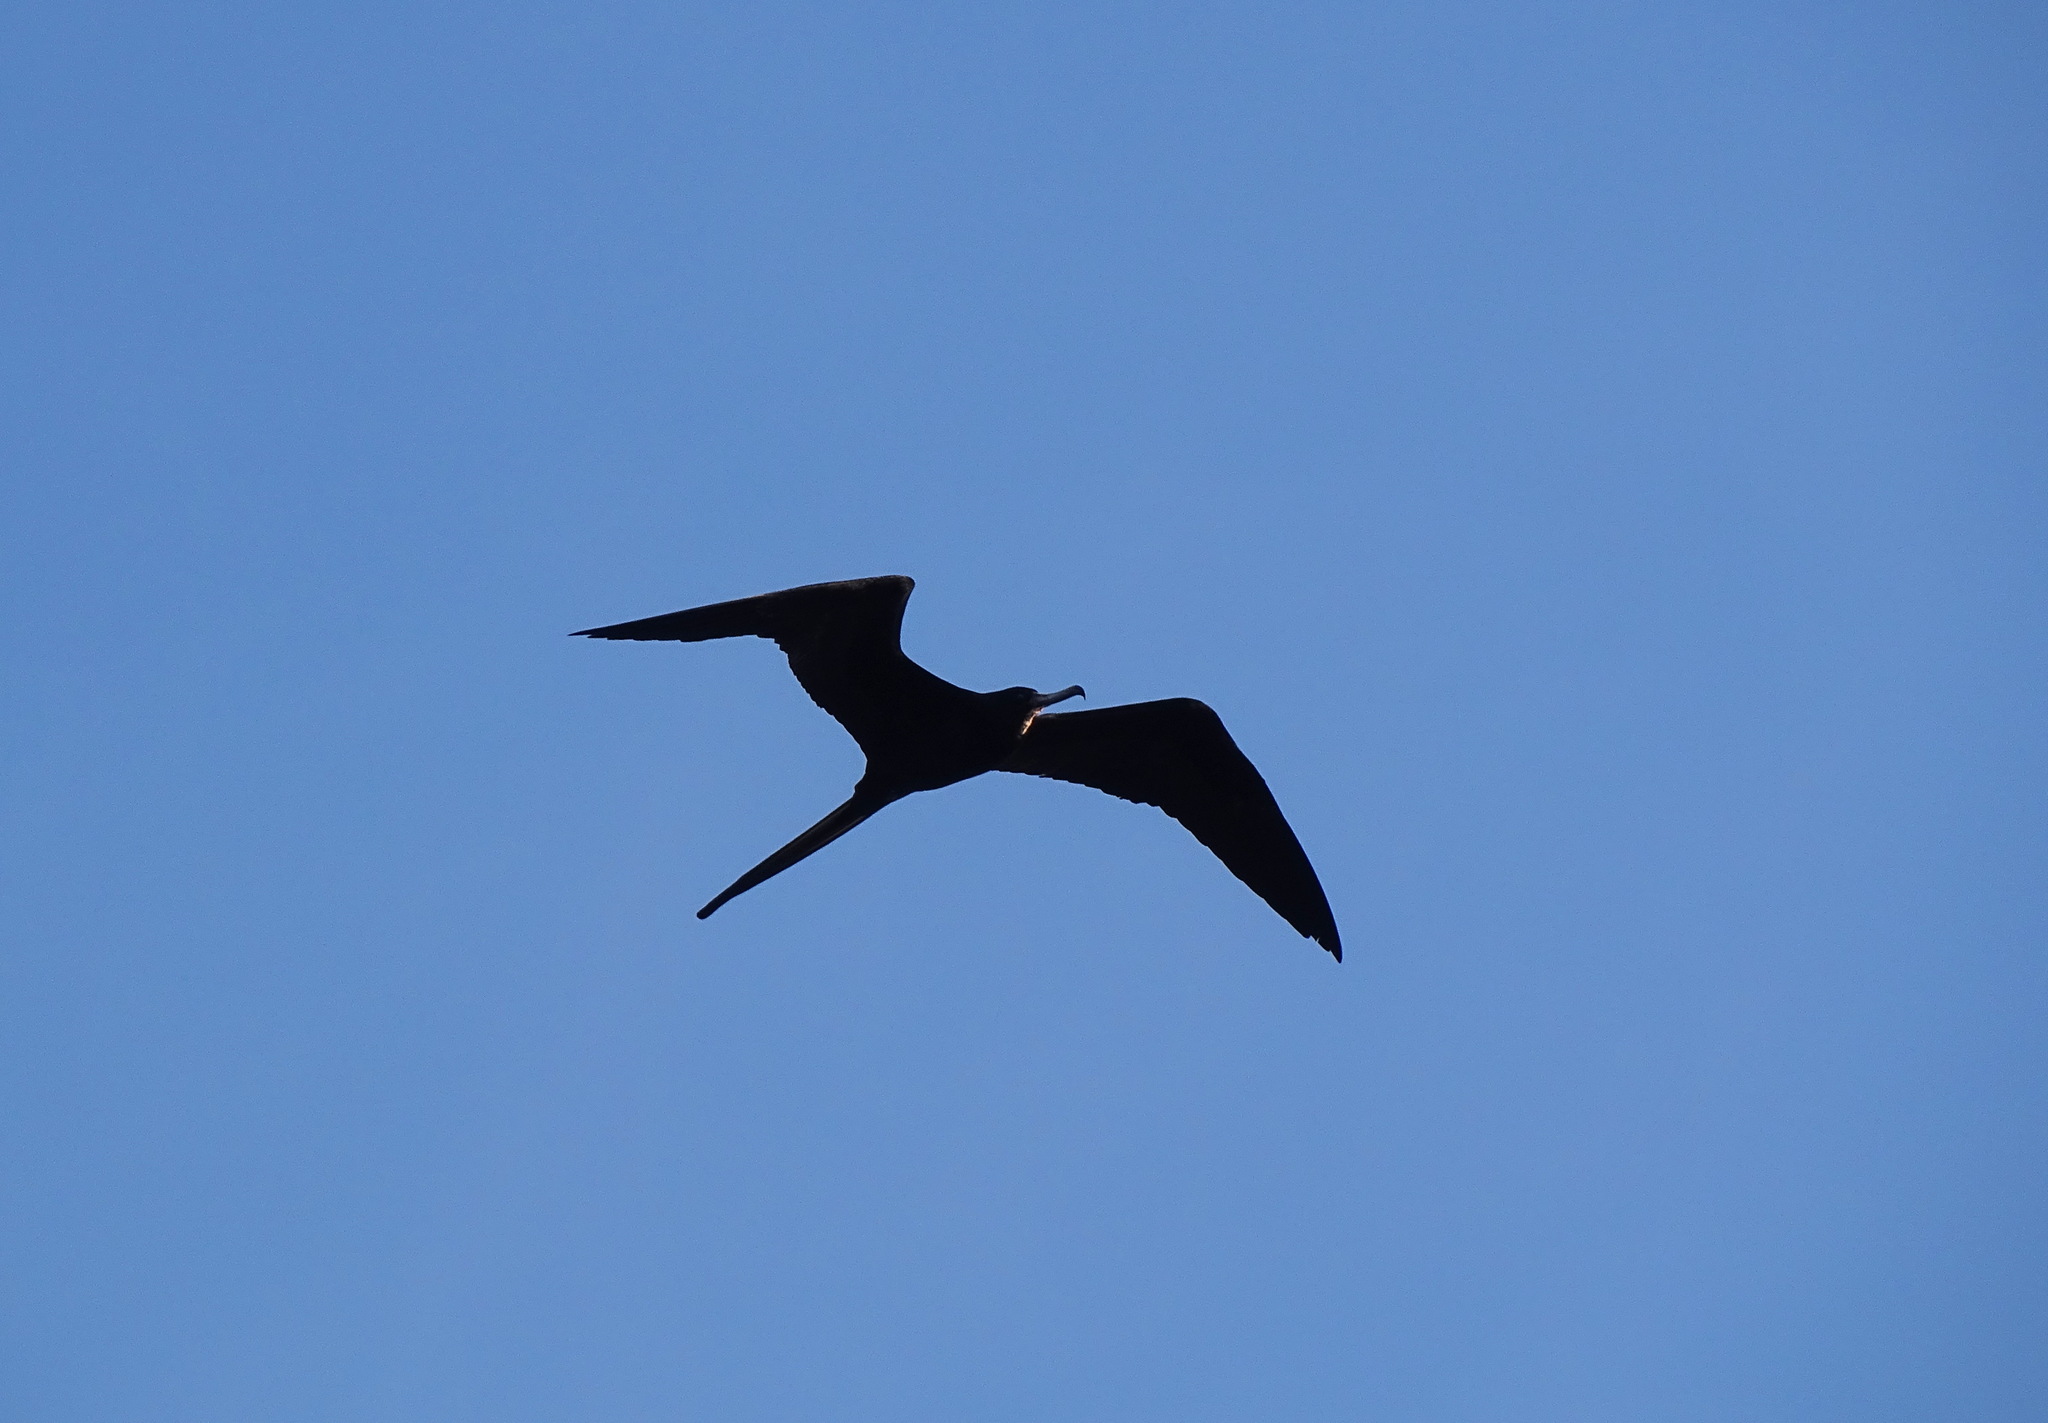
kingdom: Animalia
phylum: Chordata
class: Aves
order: Suliformes
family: Fregatidae
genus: Fregata
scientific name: Fregata magnificens
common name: Magnificent frigatebird
